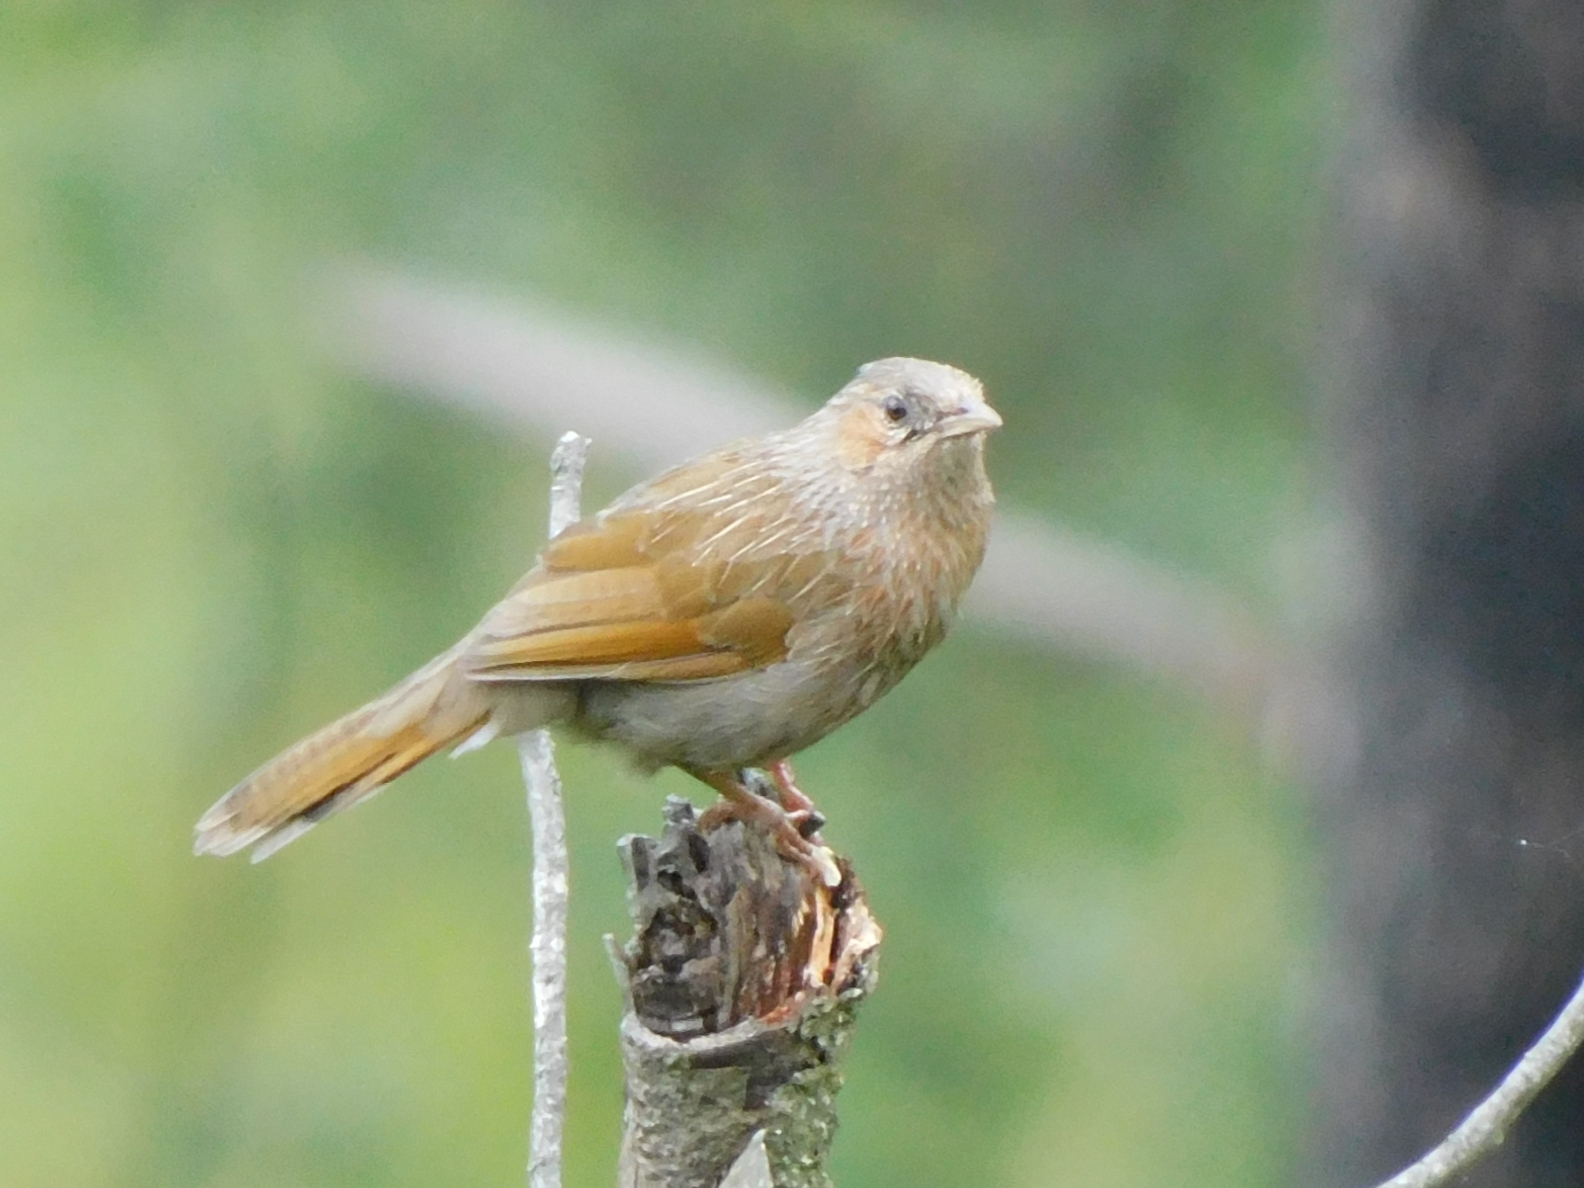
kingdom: Animalia
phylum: Chordata
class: Aves
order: Passeriformes
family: Leiothrichidae
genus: Trochalopteron
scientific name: Trochalopteron lineatum
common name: Streaked laughingthrush
